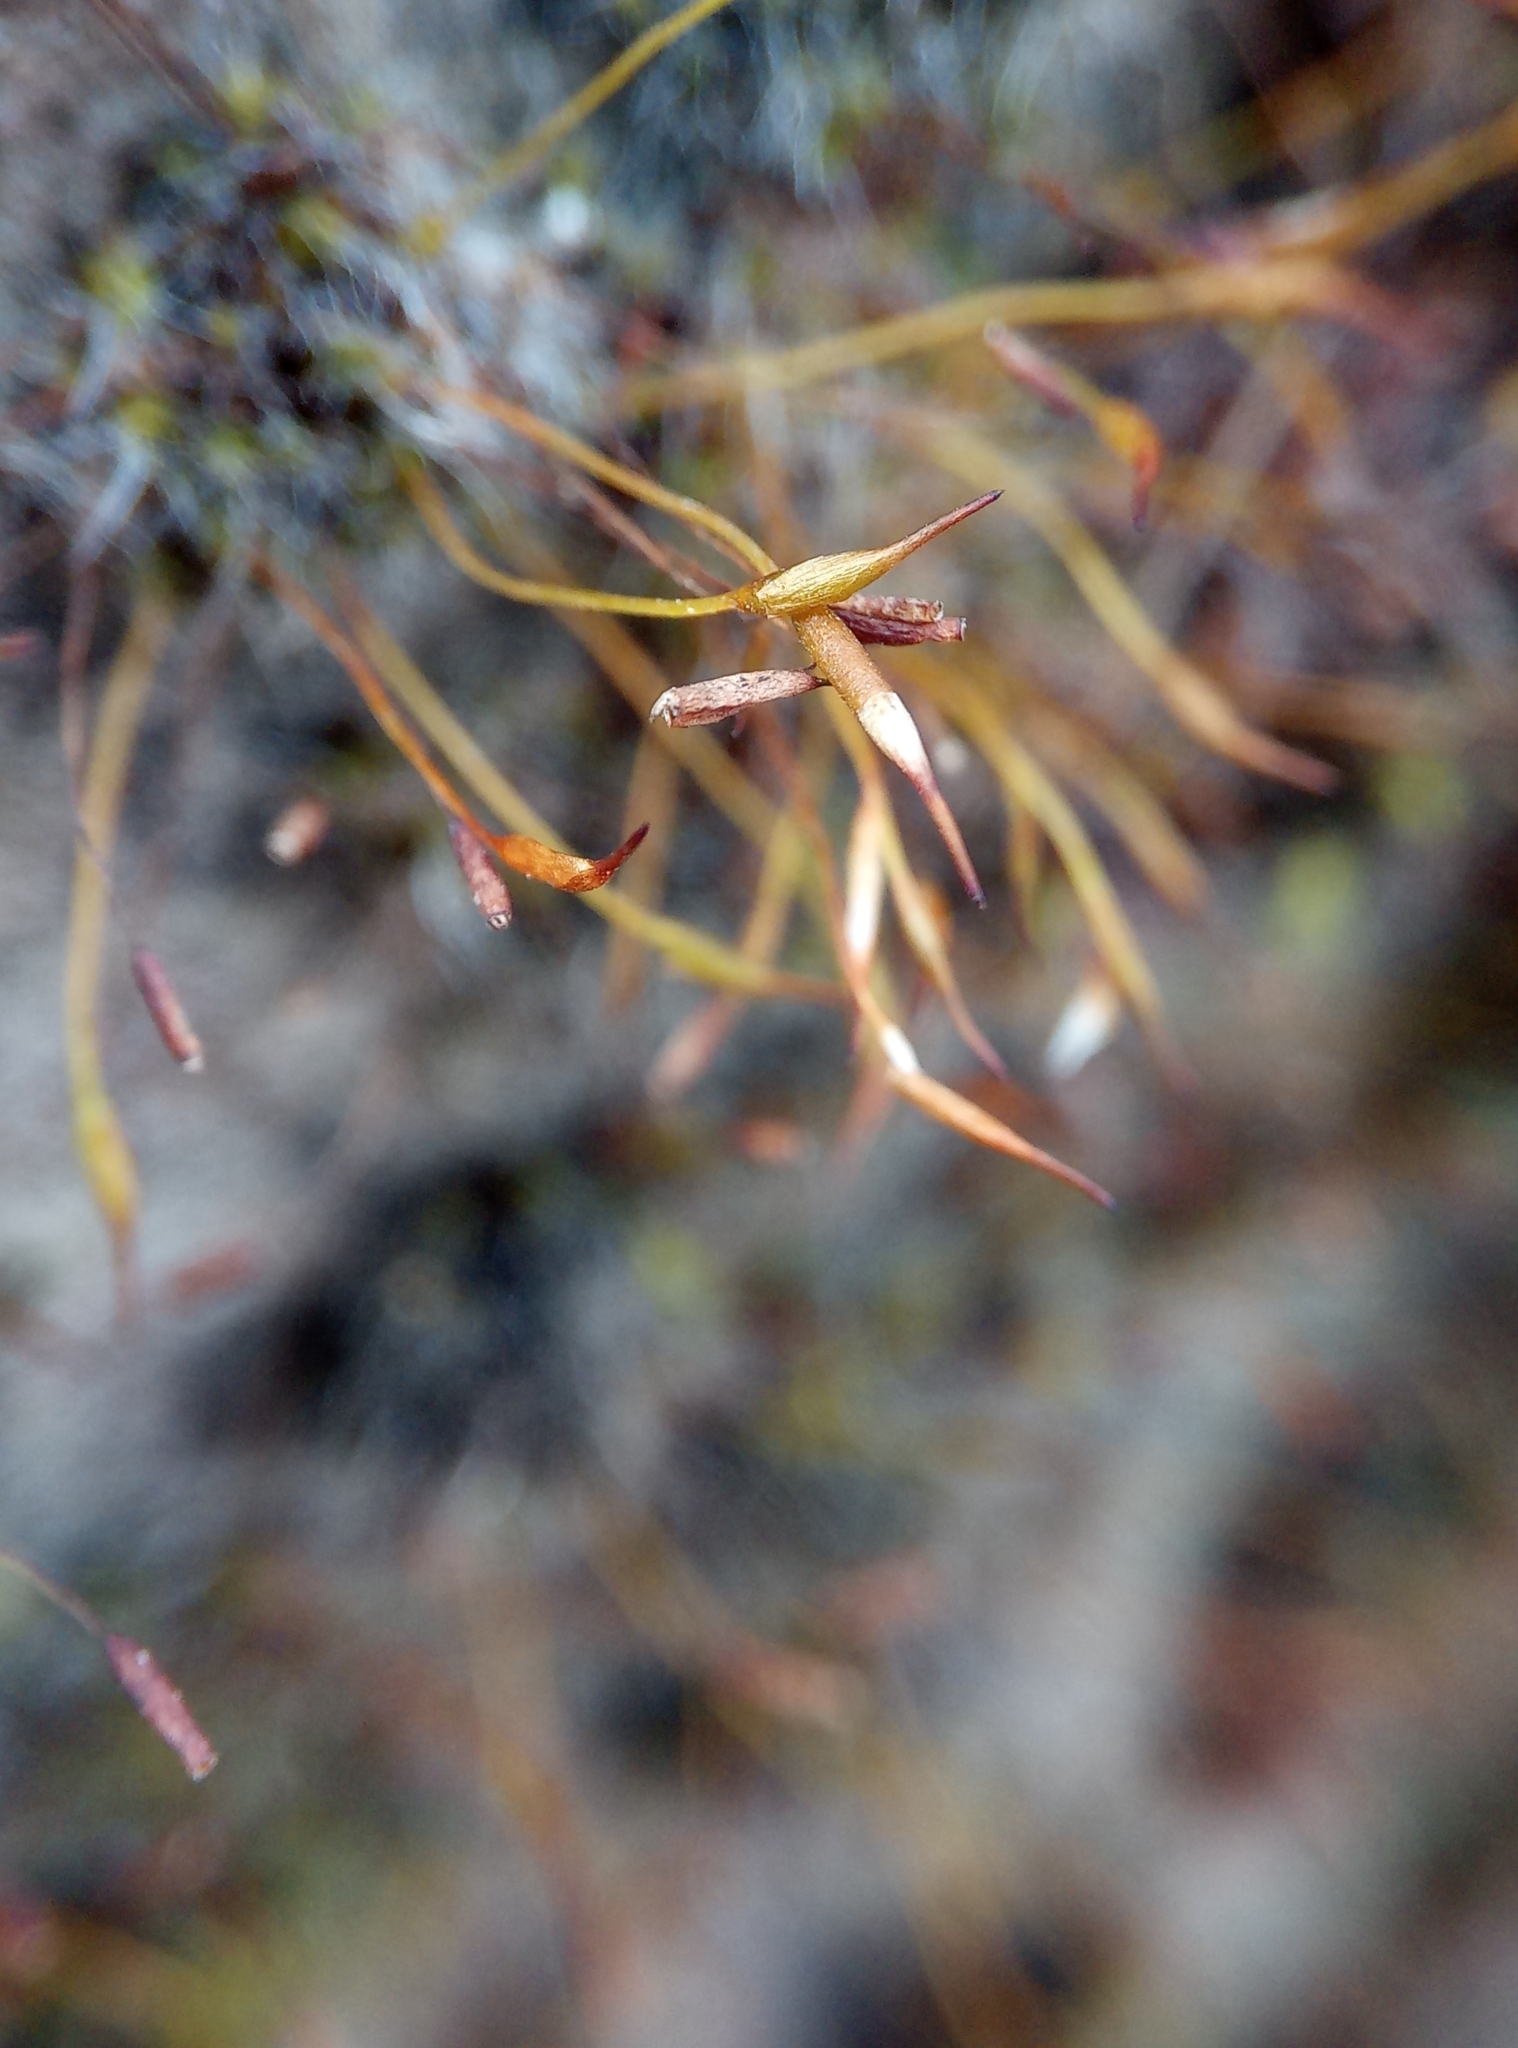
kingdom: Plantae
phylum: Bryophyta
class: Bryopsida
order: Pottiales
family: Pottiaceae
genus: Tortula
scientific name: Tortula muralis
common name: Wall screw-moss
